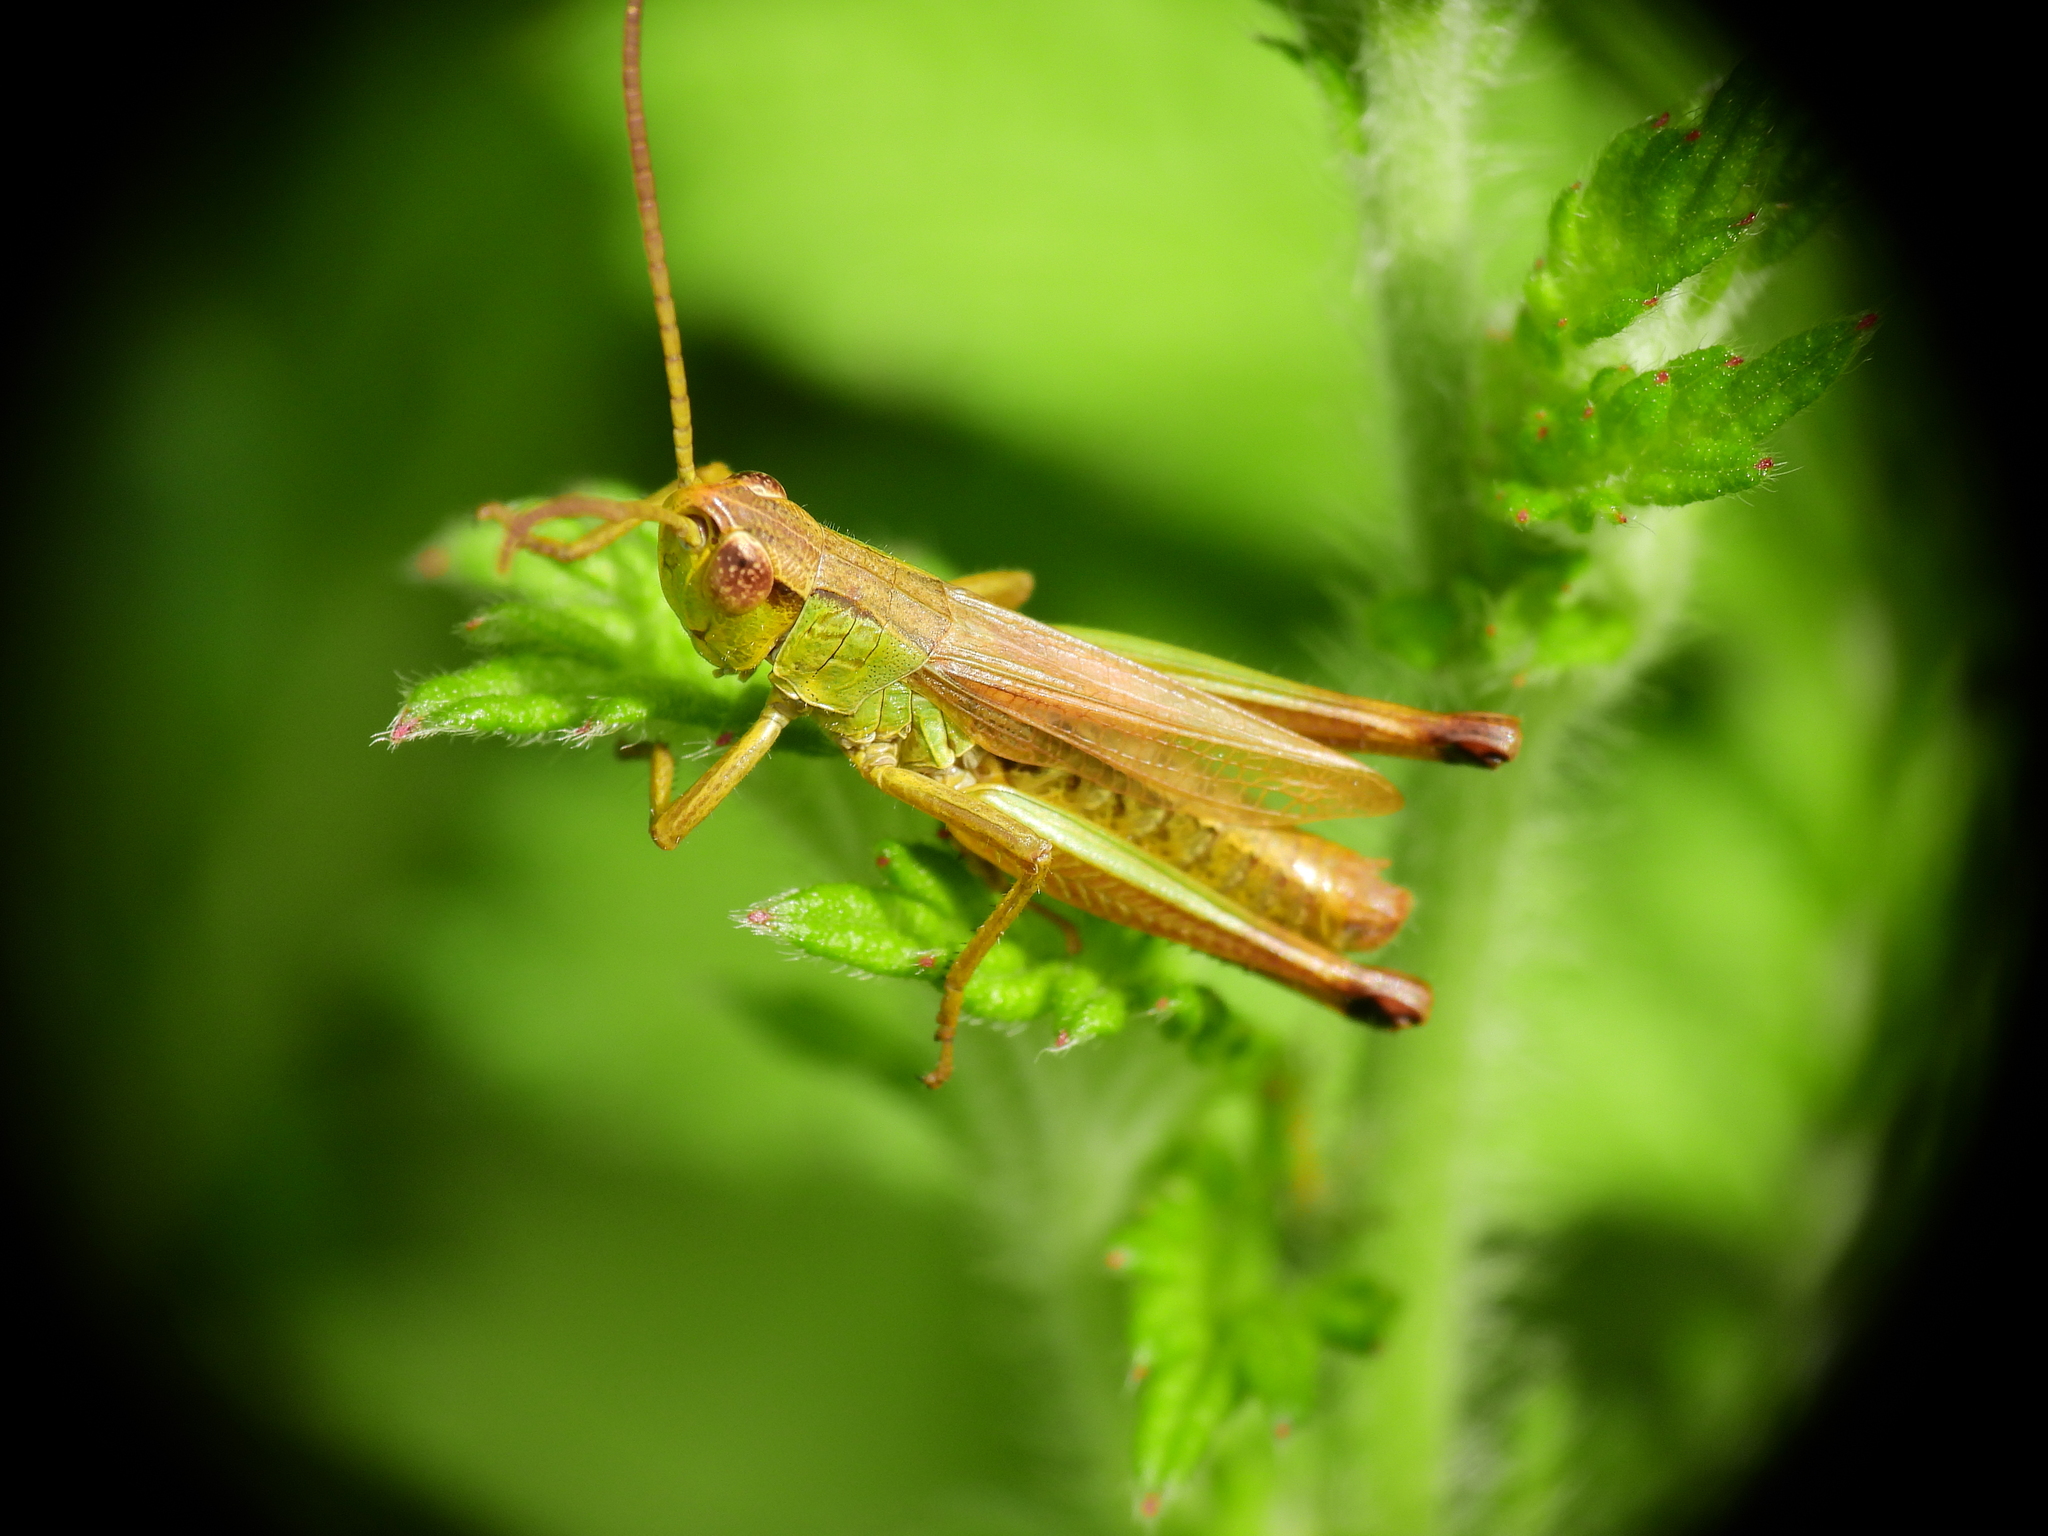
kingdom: Animalia
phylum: Arthropoda
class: Insecta
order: Orthoptera
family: Acrididae
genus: Pseudochorthippus
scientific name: Pseudochorthippus parallelus
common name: Meadow grasshopper
